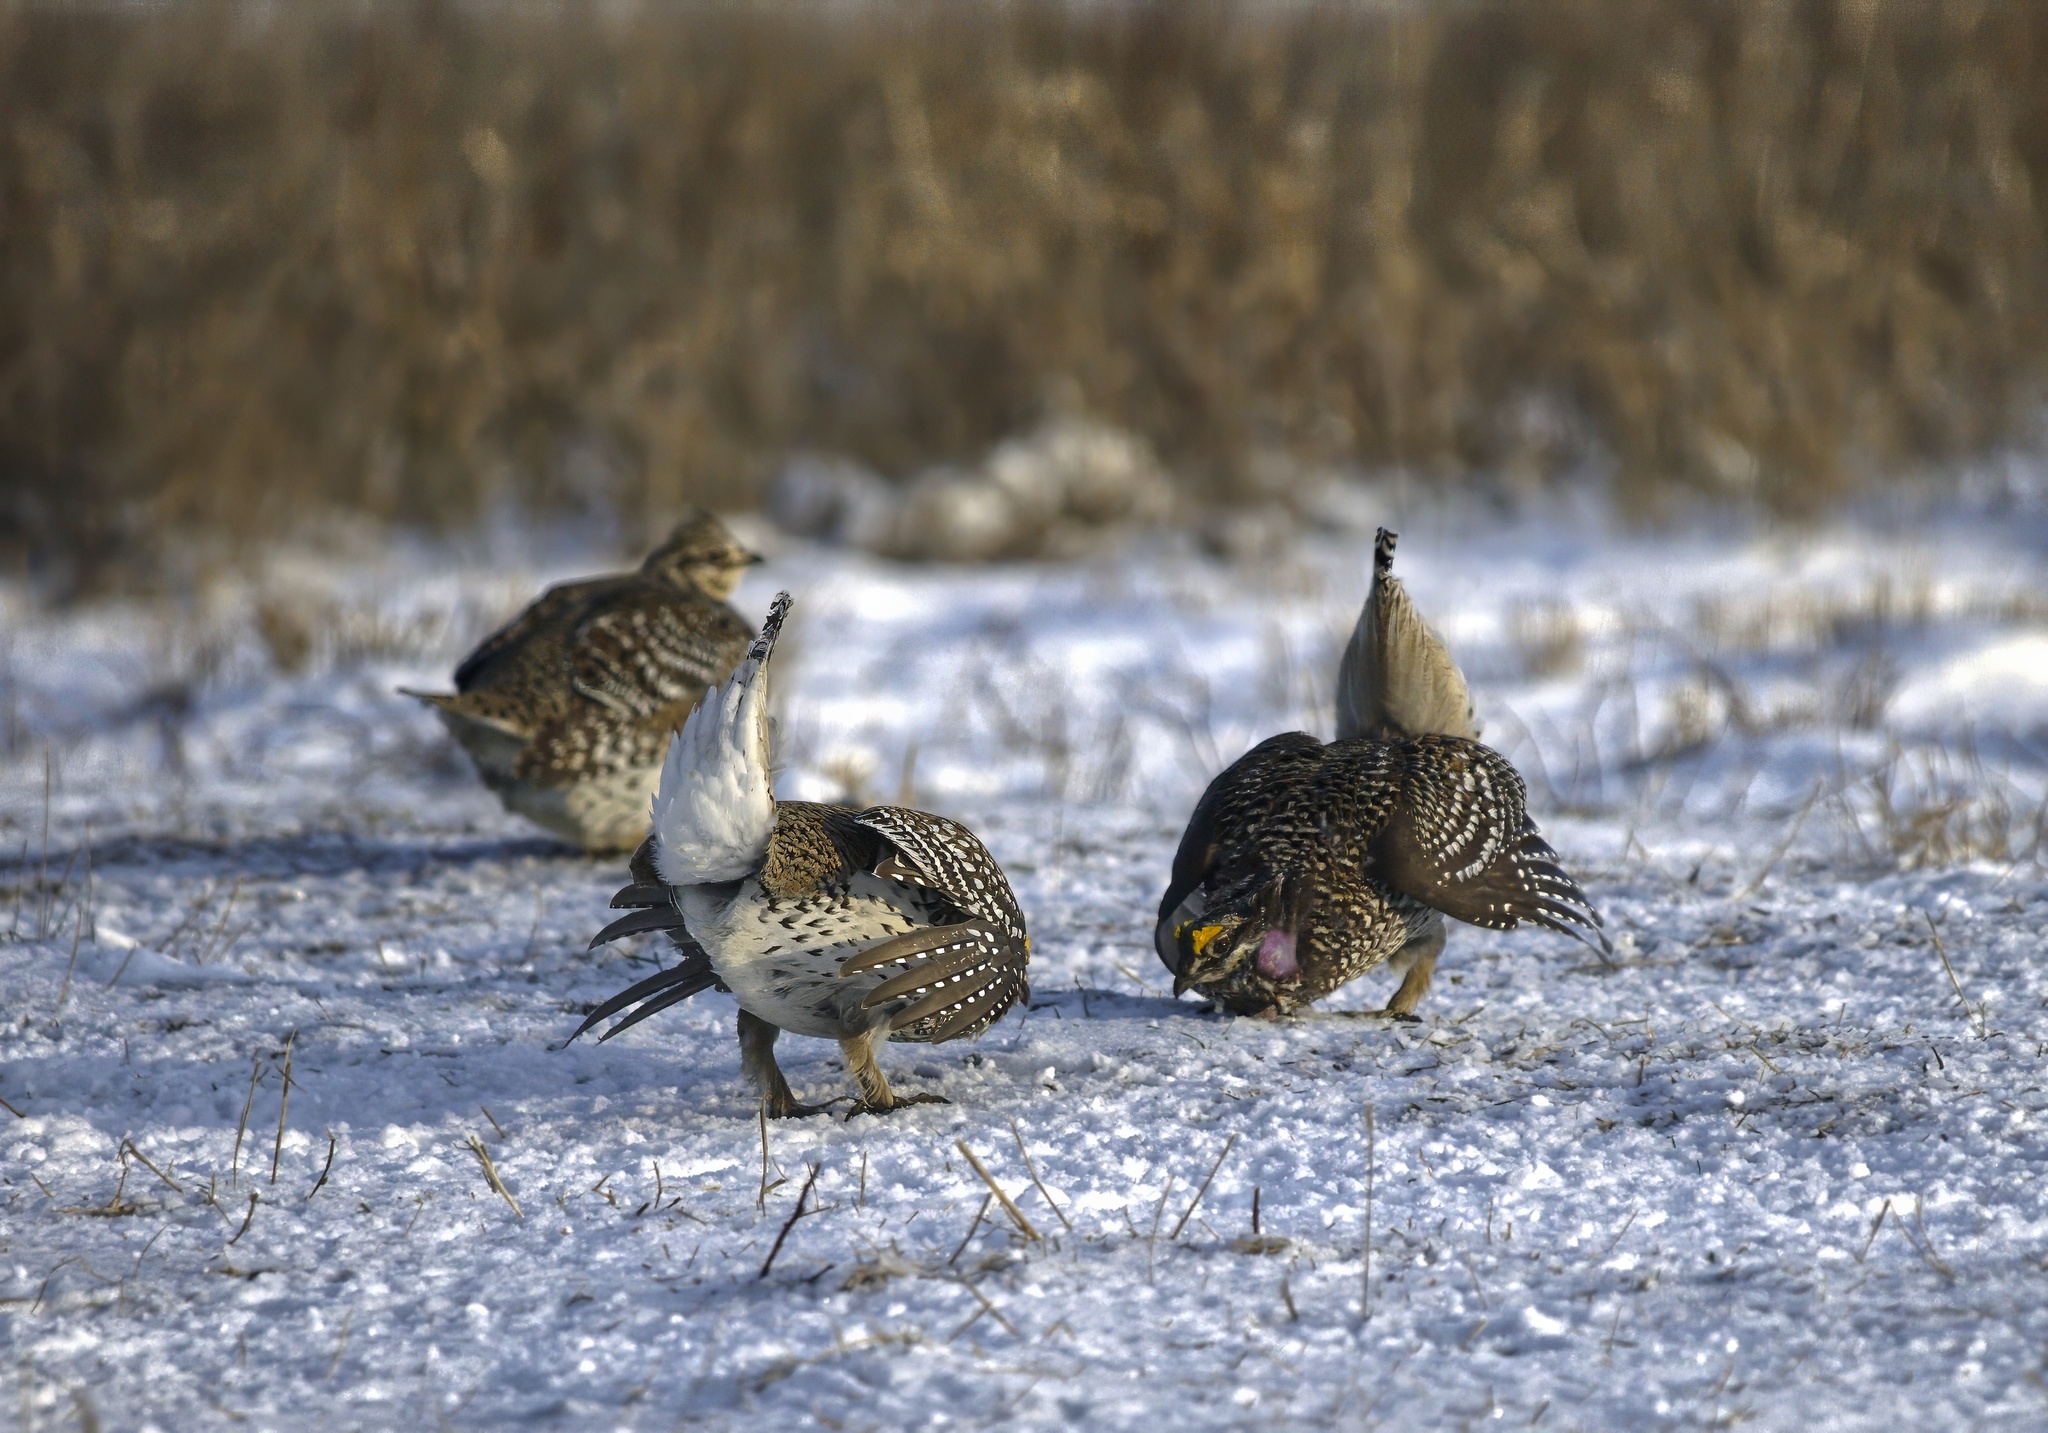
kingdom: Animalia
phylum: Chordata
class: Aves
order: Galliformes
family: Phasianidae
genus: Tympanuchus
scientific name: Tympanuchus phasianellus
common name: Sharp-tailed grouse
